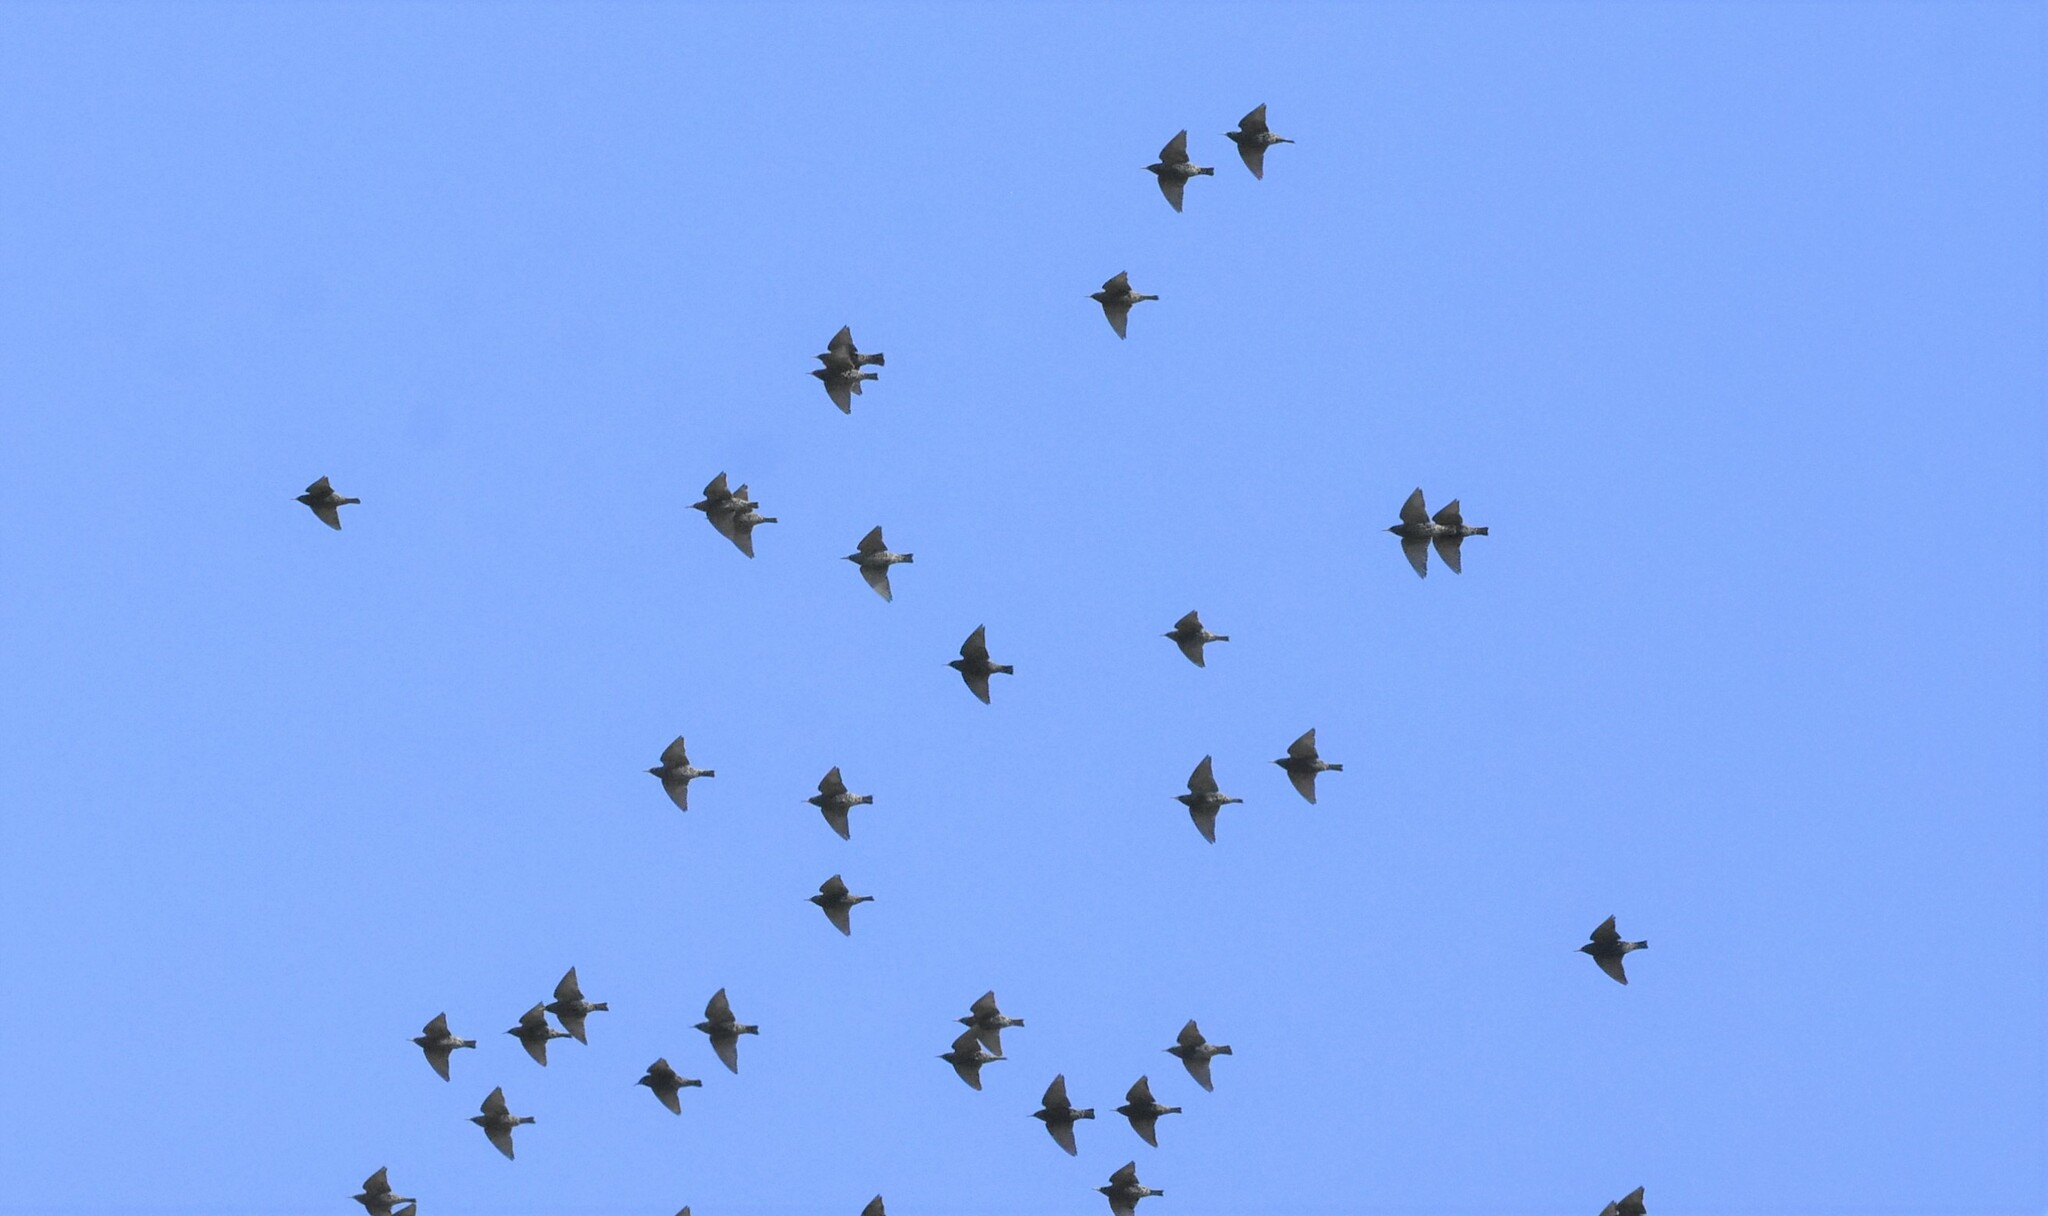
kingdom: Animalia
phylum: Chordata
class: Aves
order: Passeriformes
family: Sturnidae
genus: Sturnus
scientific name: Sturnus vulgaris
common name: Common starling
